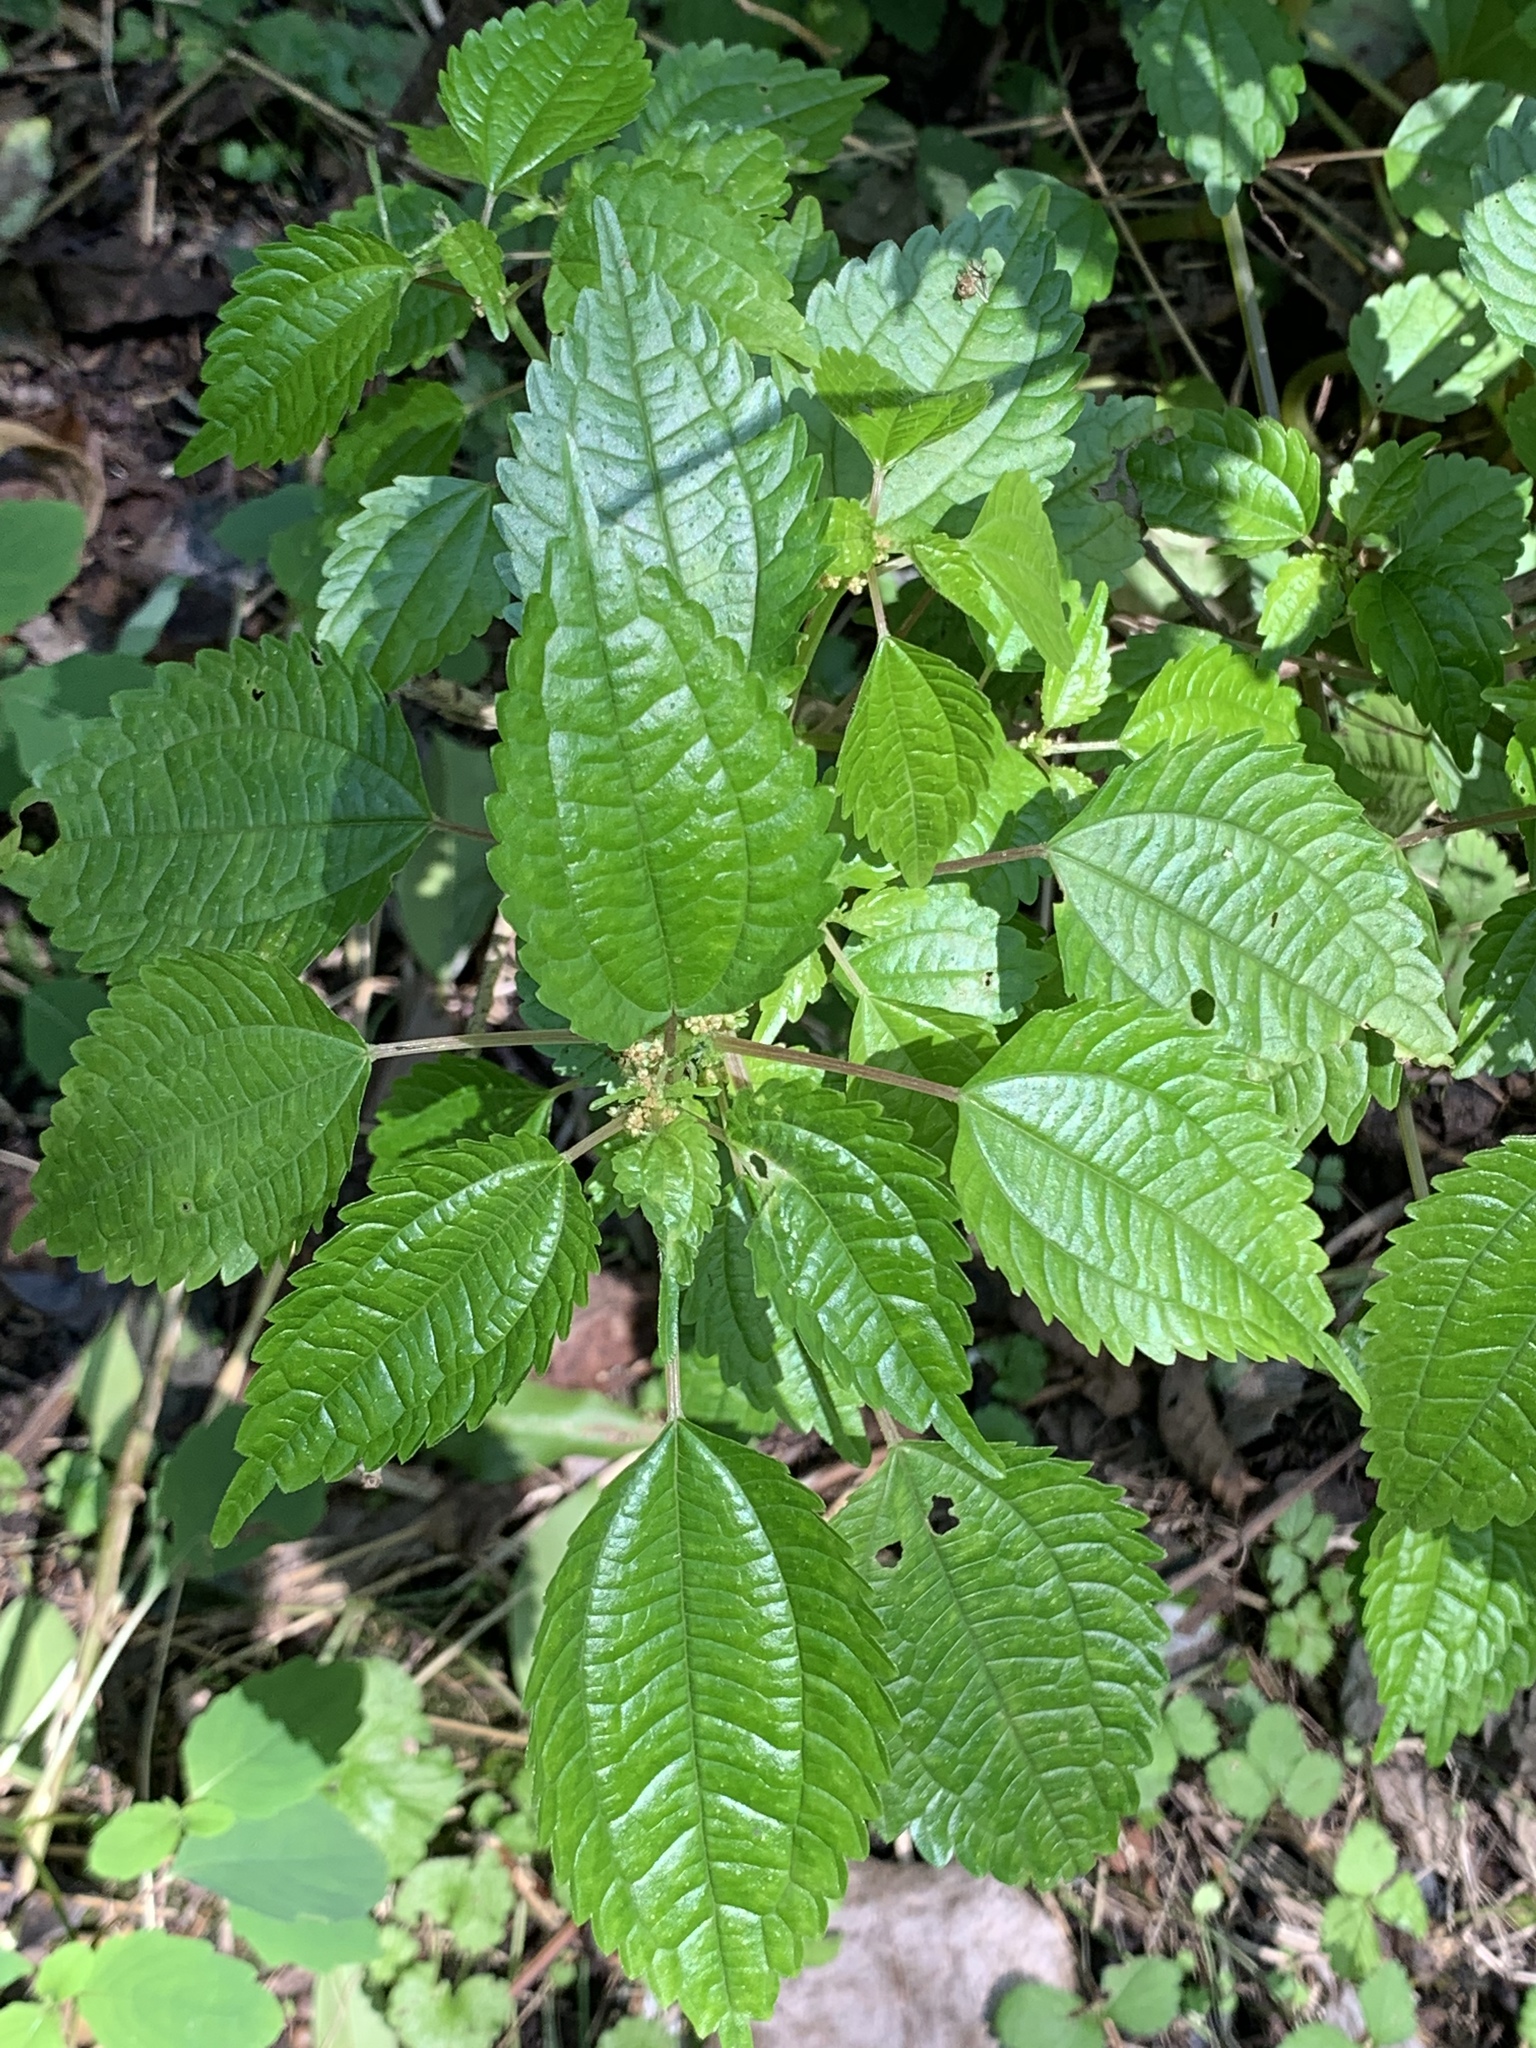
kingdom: Plantae
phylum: Tracheophyta
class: Magnoliopsida
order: Rosales
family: Urticaceae
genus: Pilea
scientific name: Pilea pumila
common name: Clearweed
